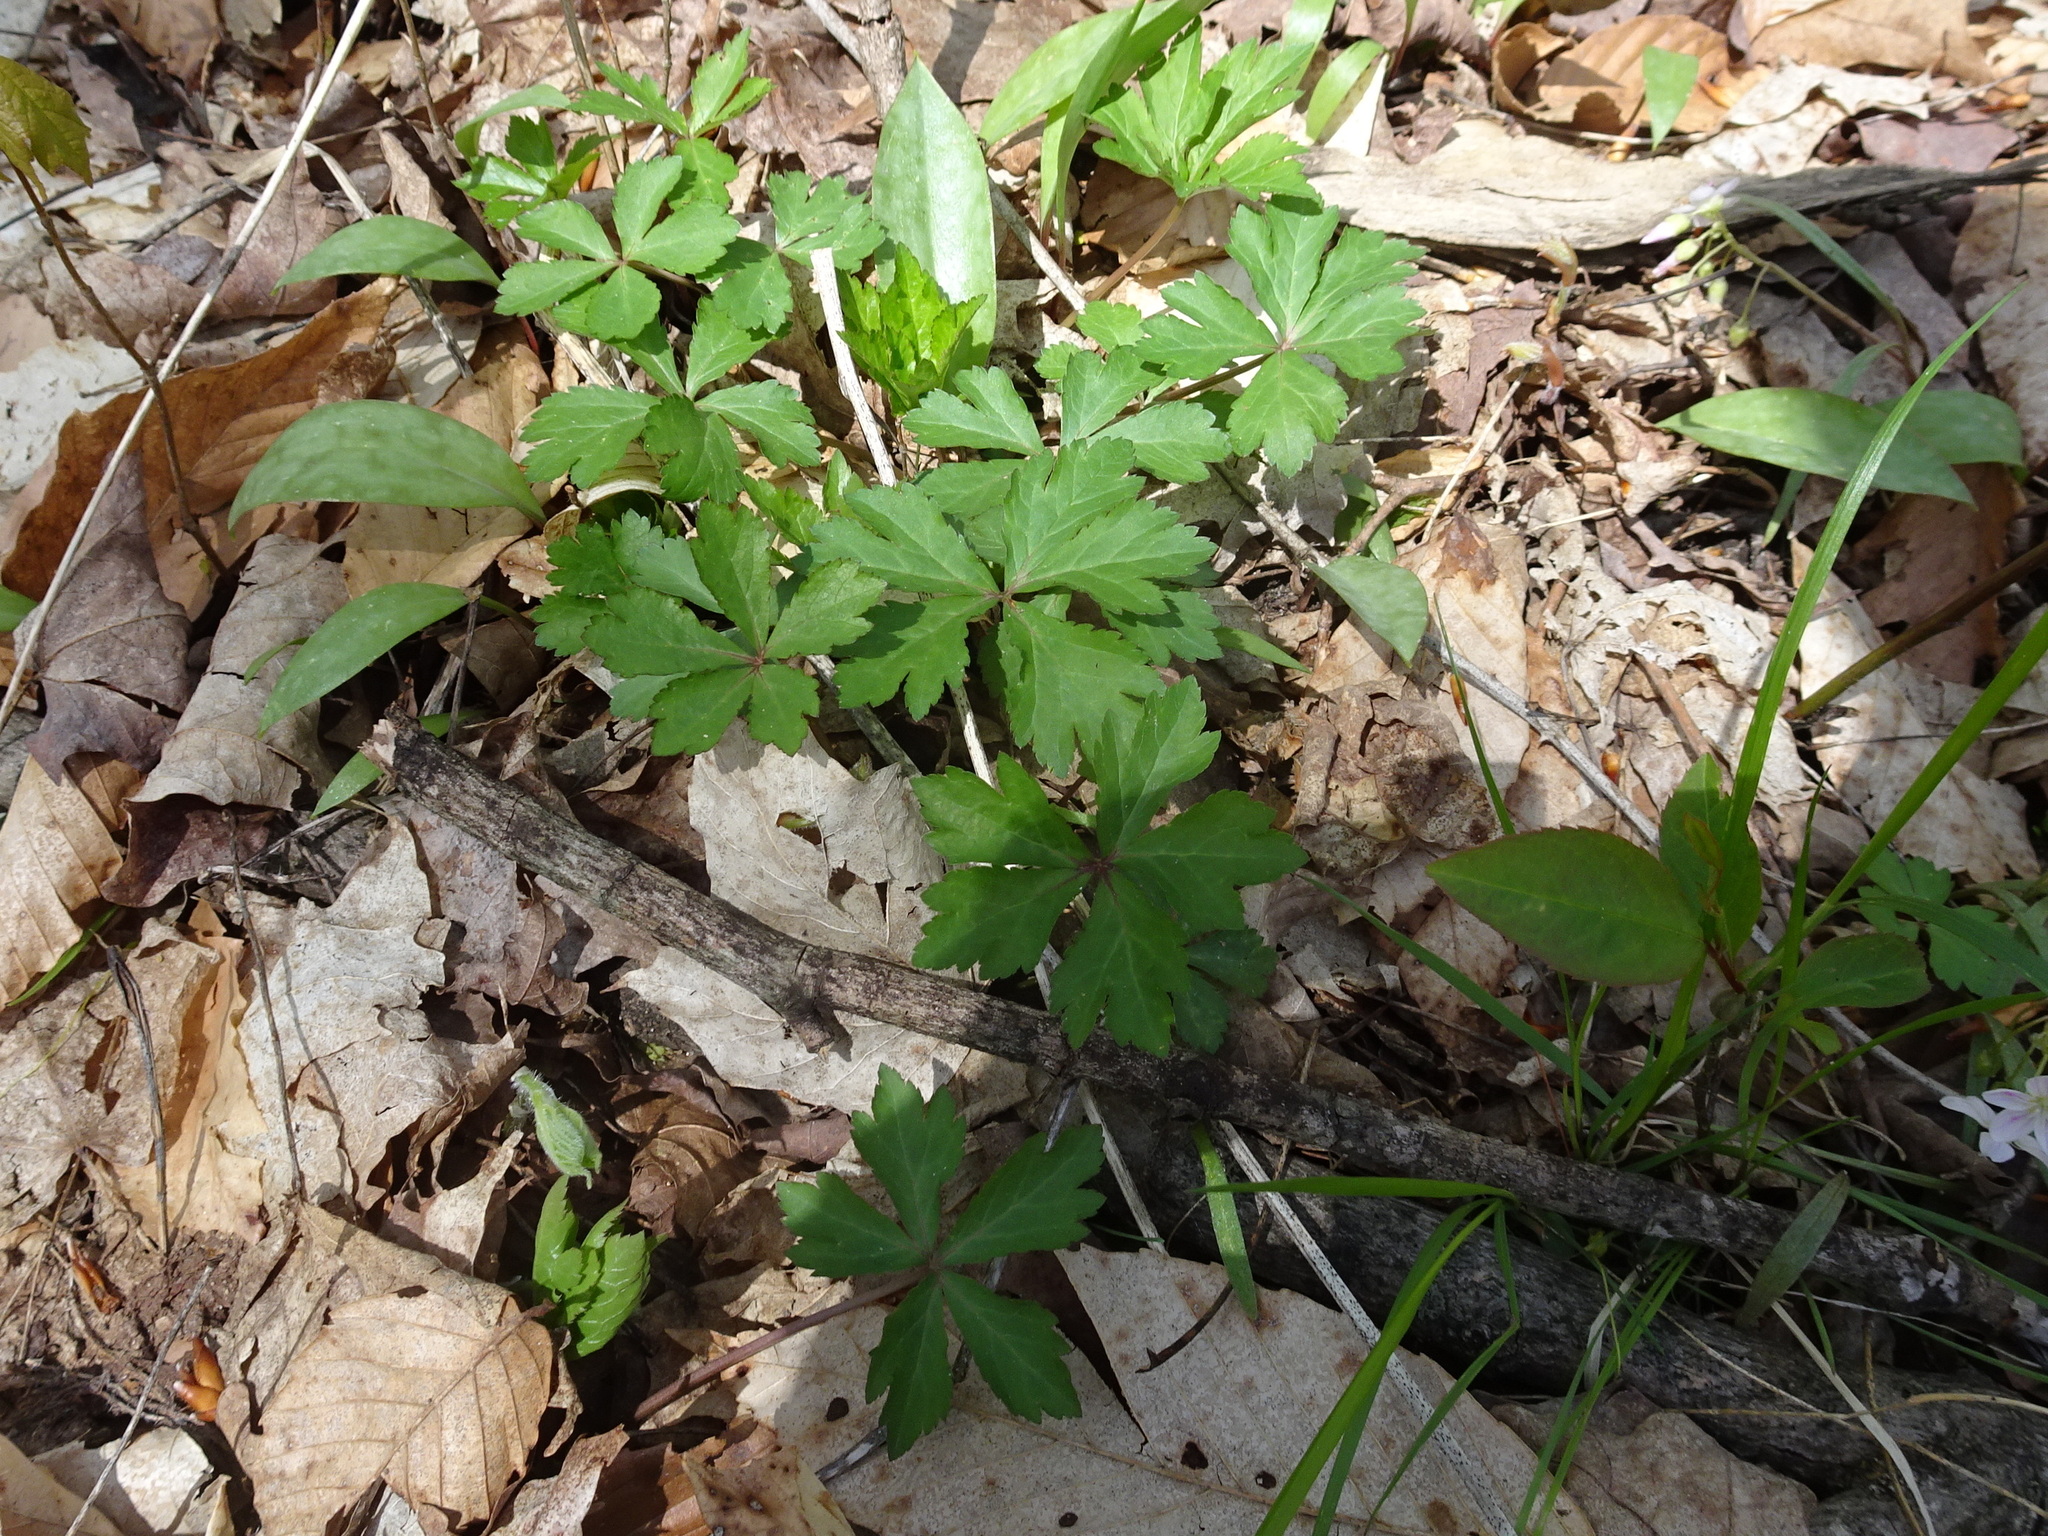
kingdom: Plantae
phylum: Tracheophyta
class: Magnoliopsida
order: Brassicales
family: Limnanthaceae
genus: Floerkea
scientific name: Floerkea proserpinacoides
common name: False mermaid
